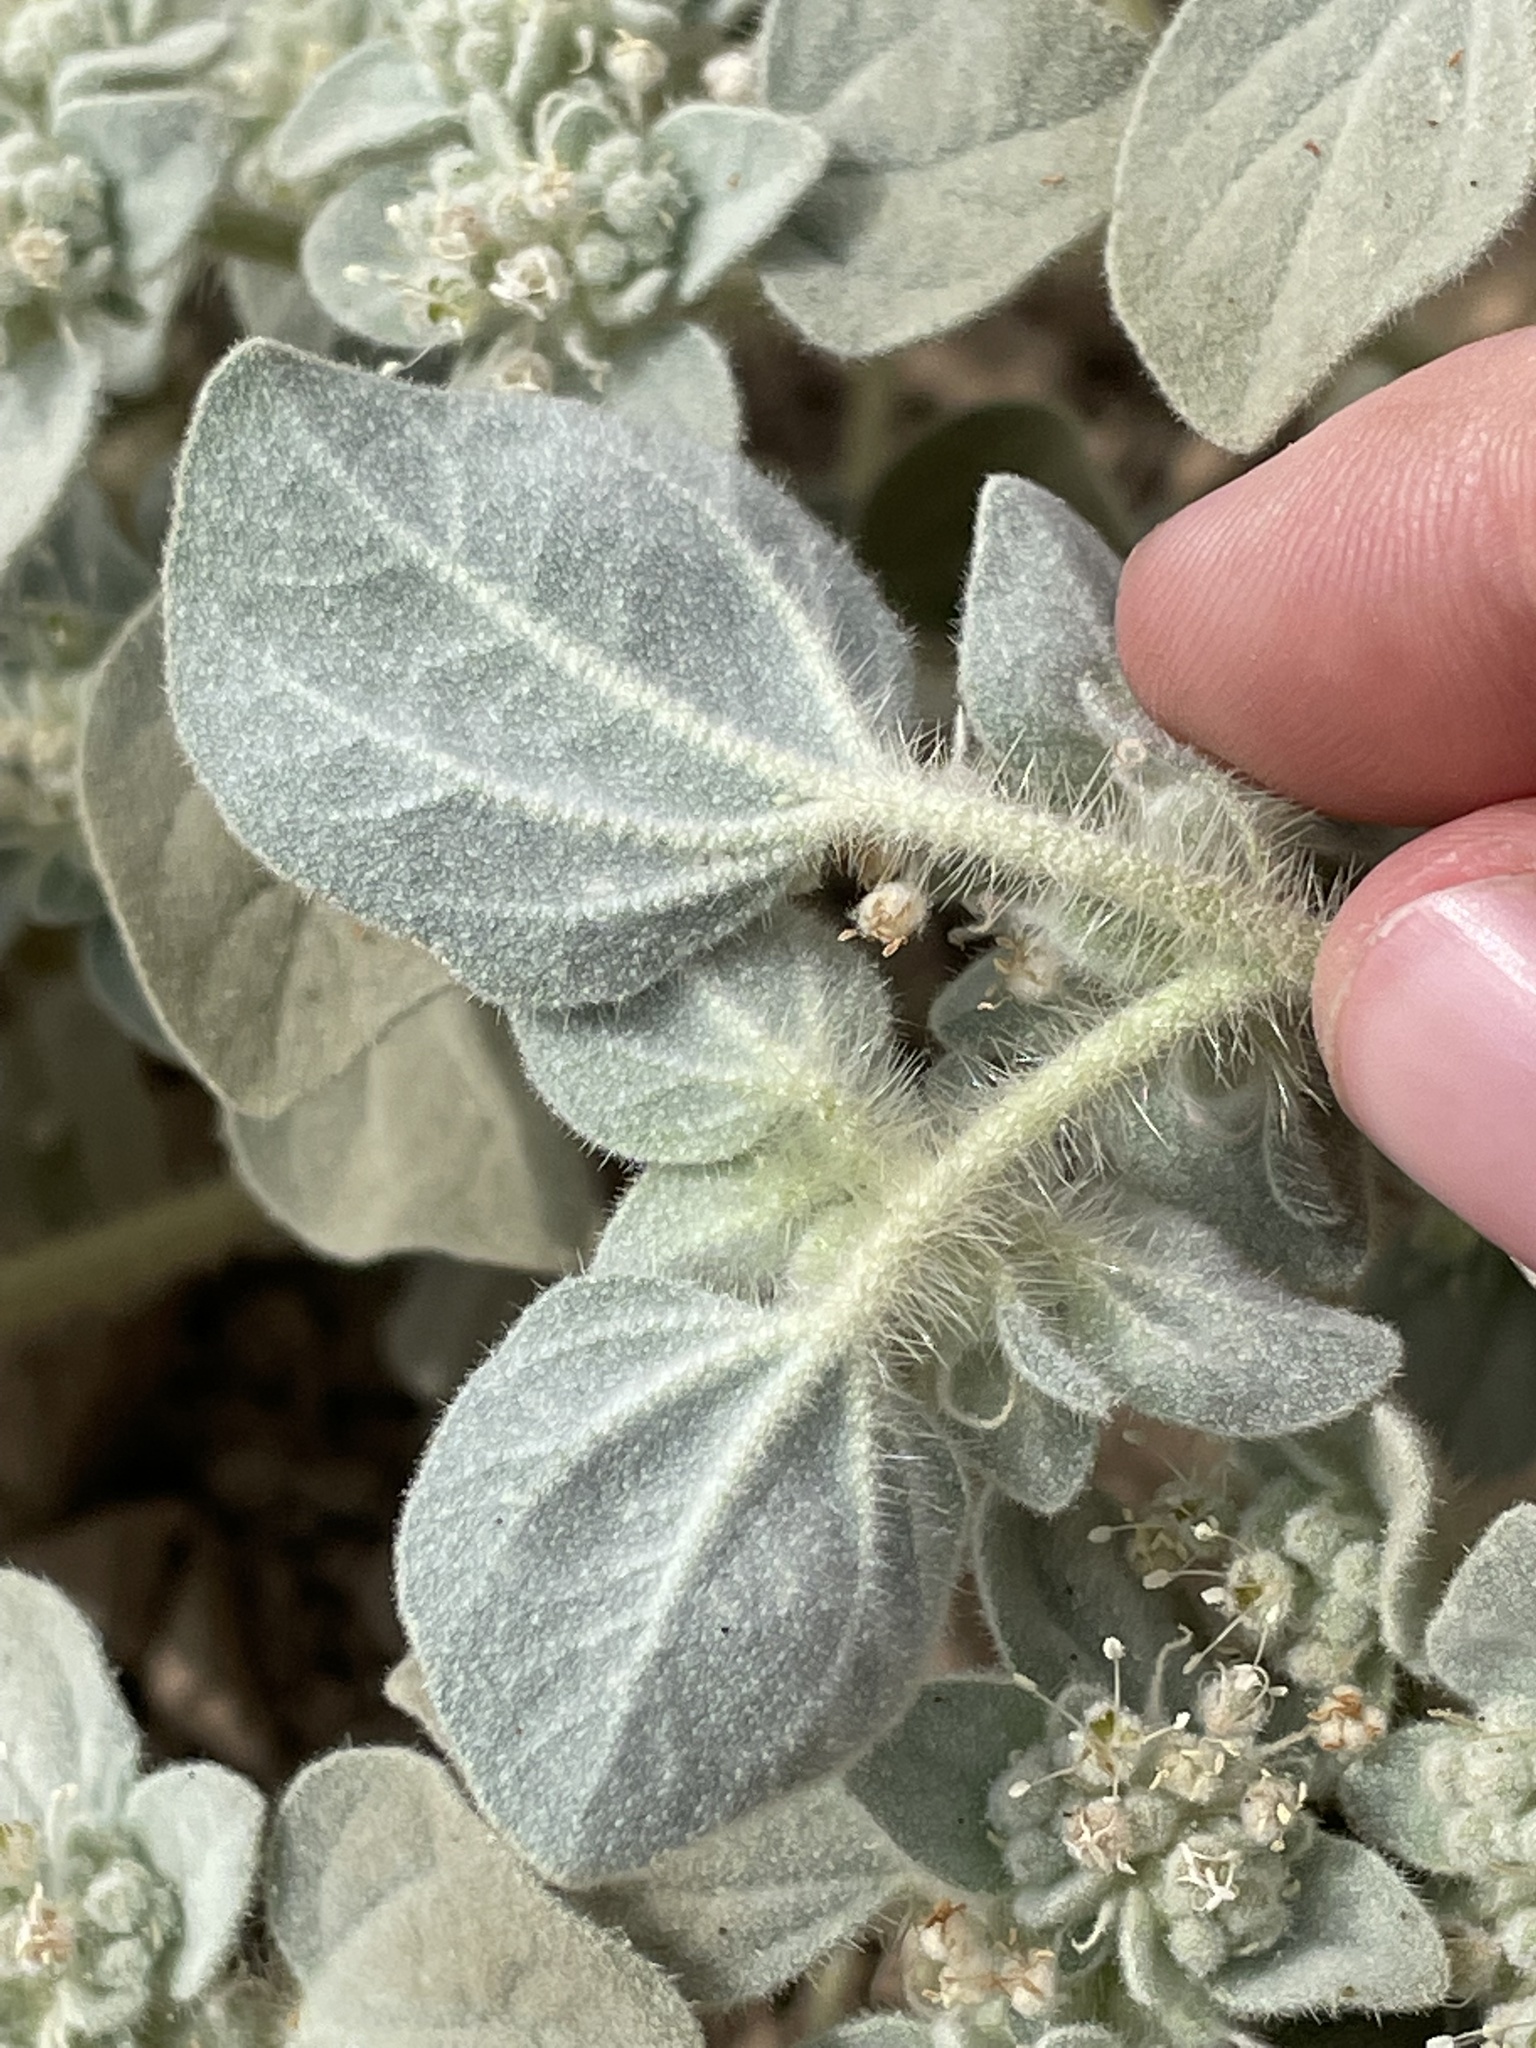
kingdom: Plantae
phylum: Tracheophyta
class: Magnoliopsida
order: Malpighiales
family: Euphorbiaceae
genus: Croton
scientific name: Croton setiger
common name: Dove weed
